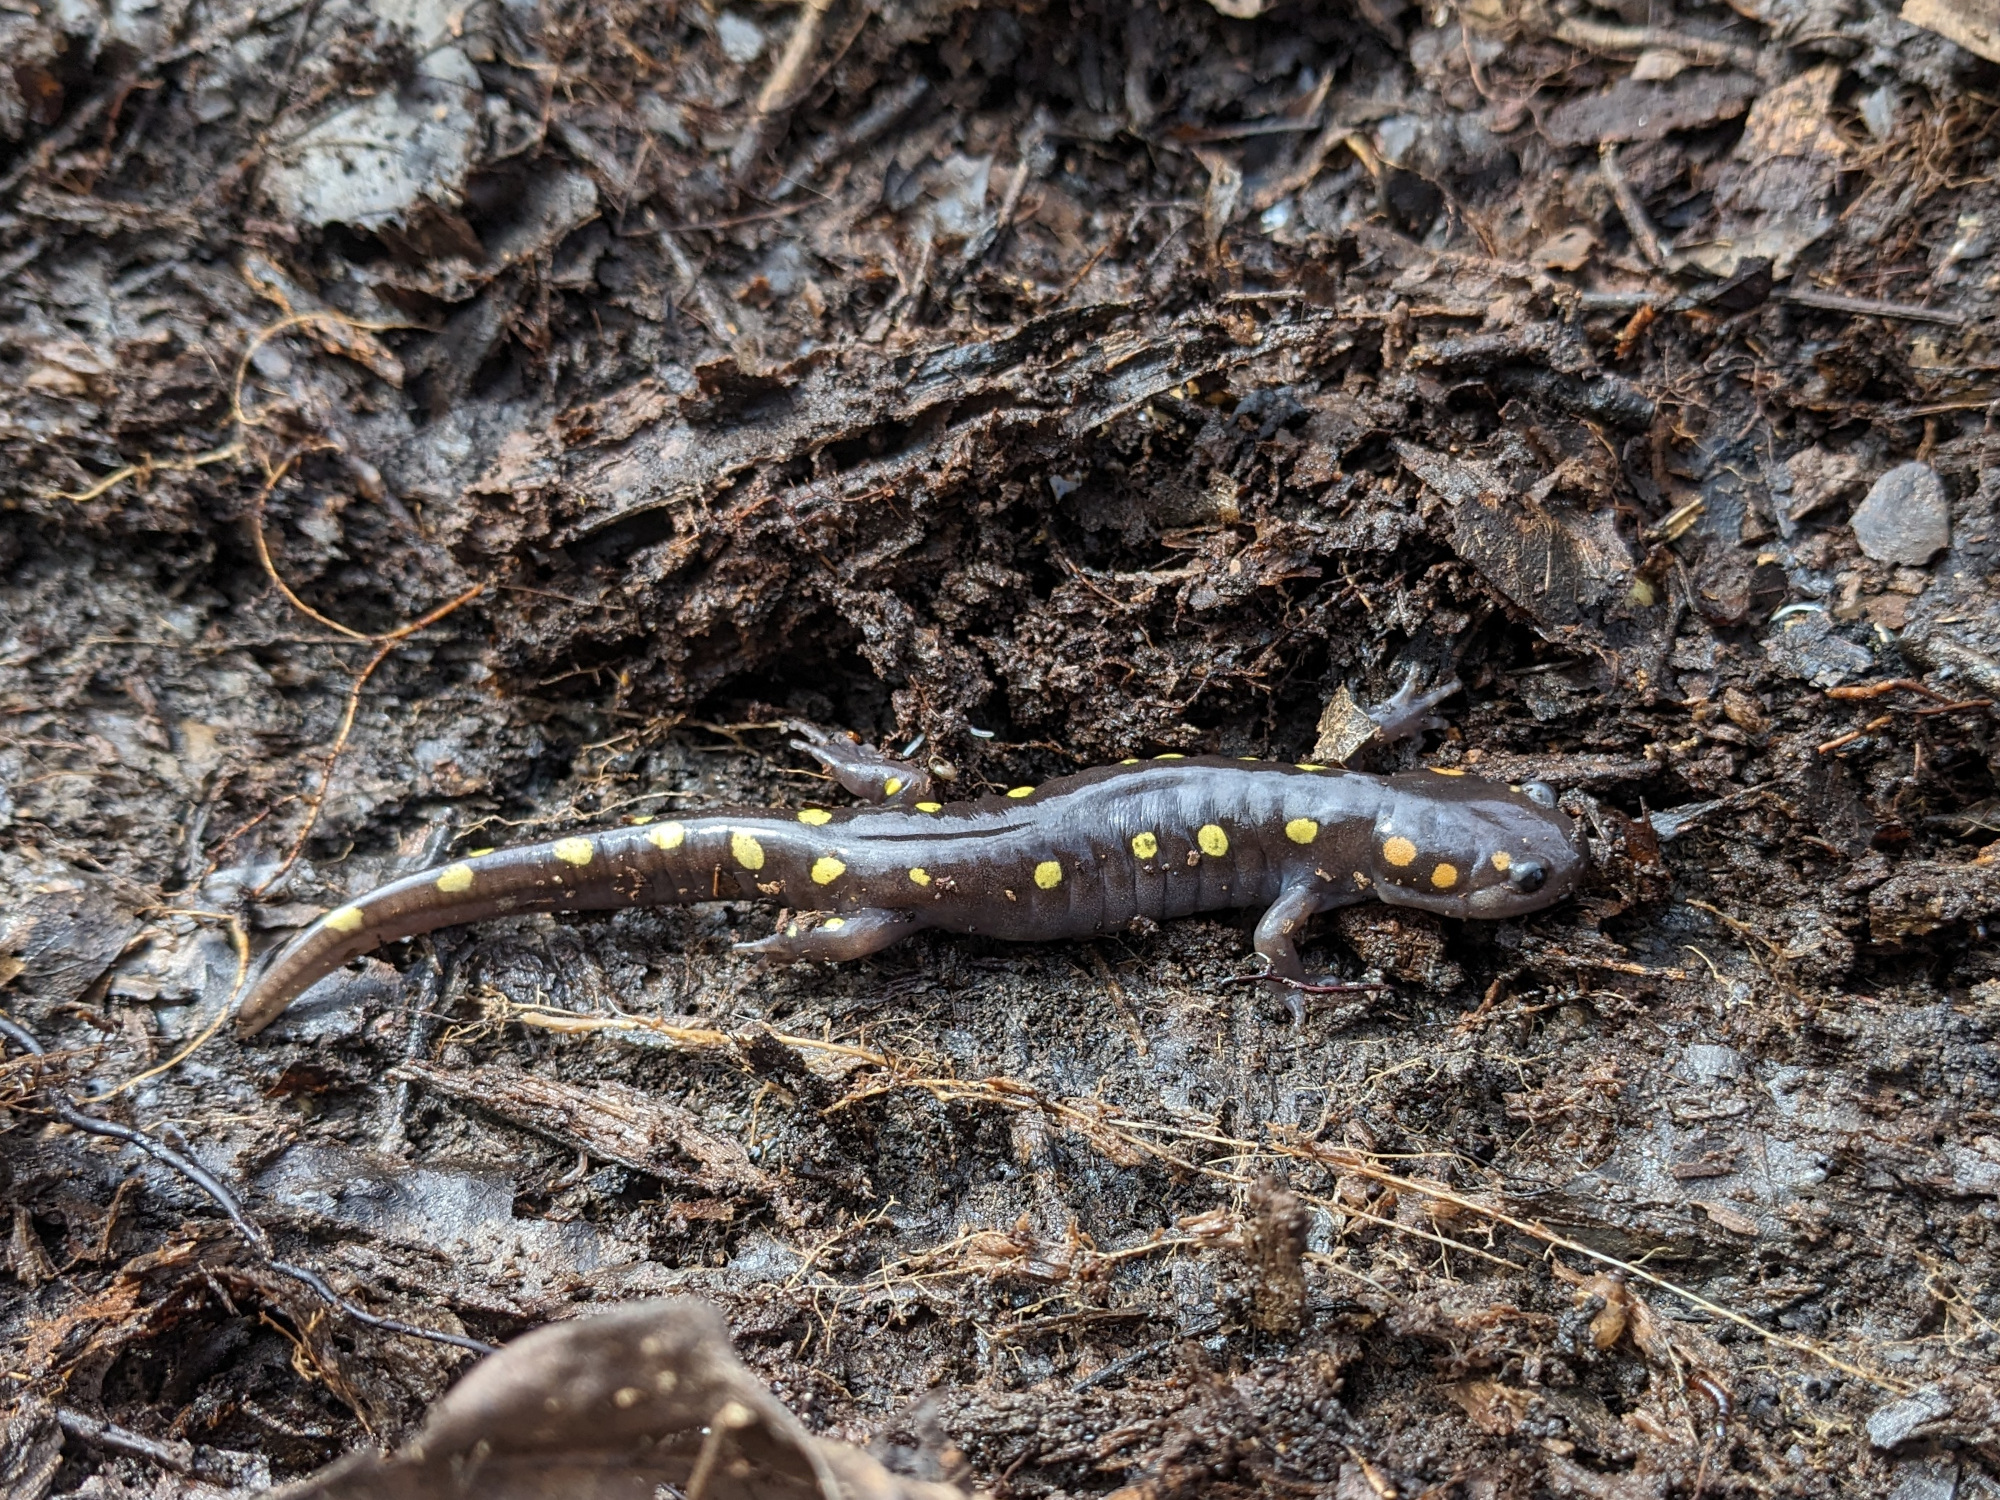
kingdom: Animalia
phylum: Chordata
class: Amphibia
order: Caudata
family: Ambystomatidae
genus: Ambystoma
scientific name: Ambystoma maculatum
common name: Spotted salamander
